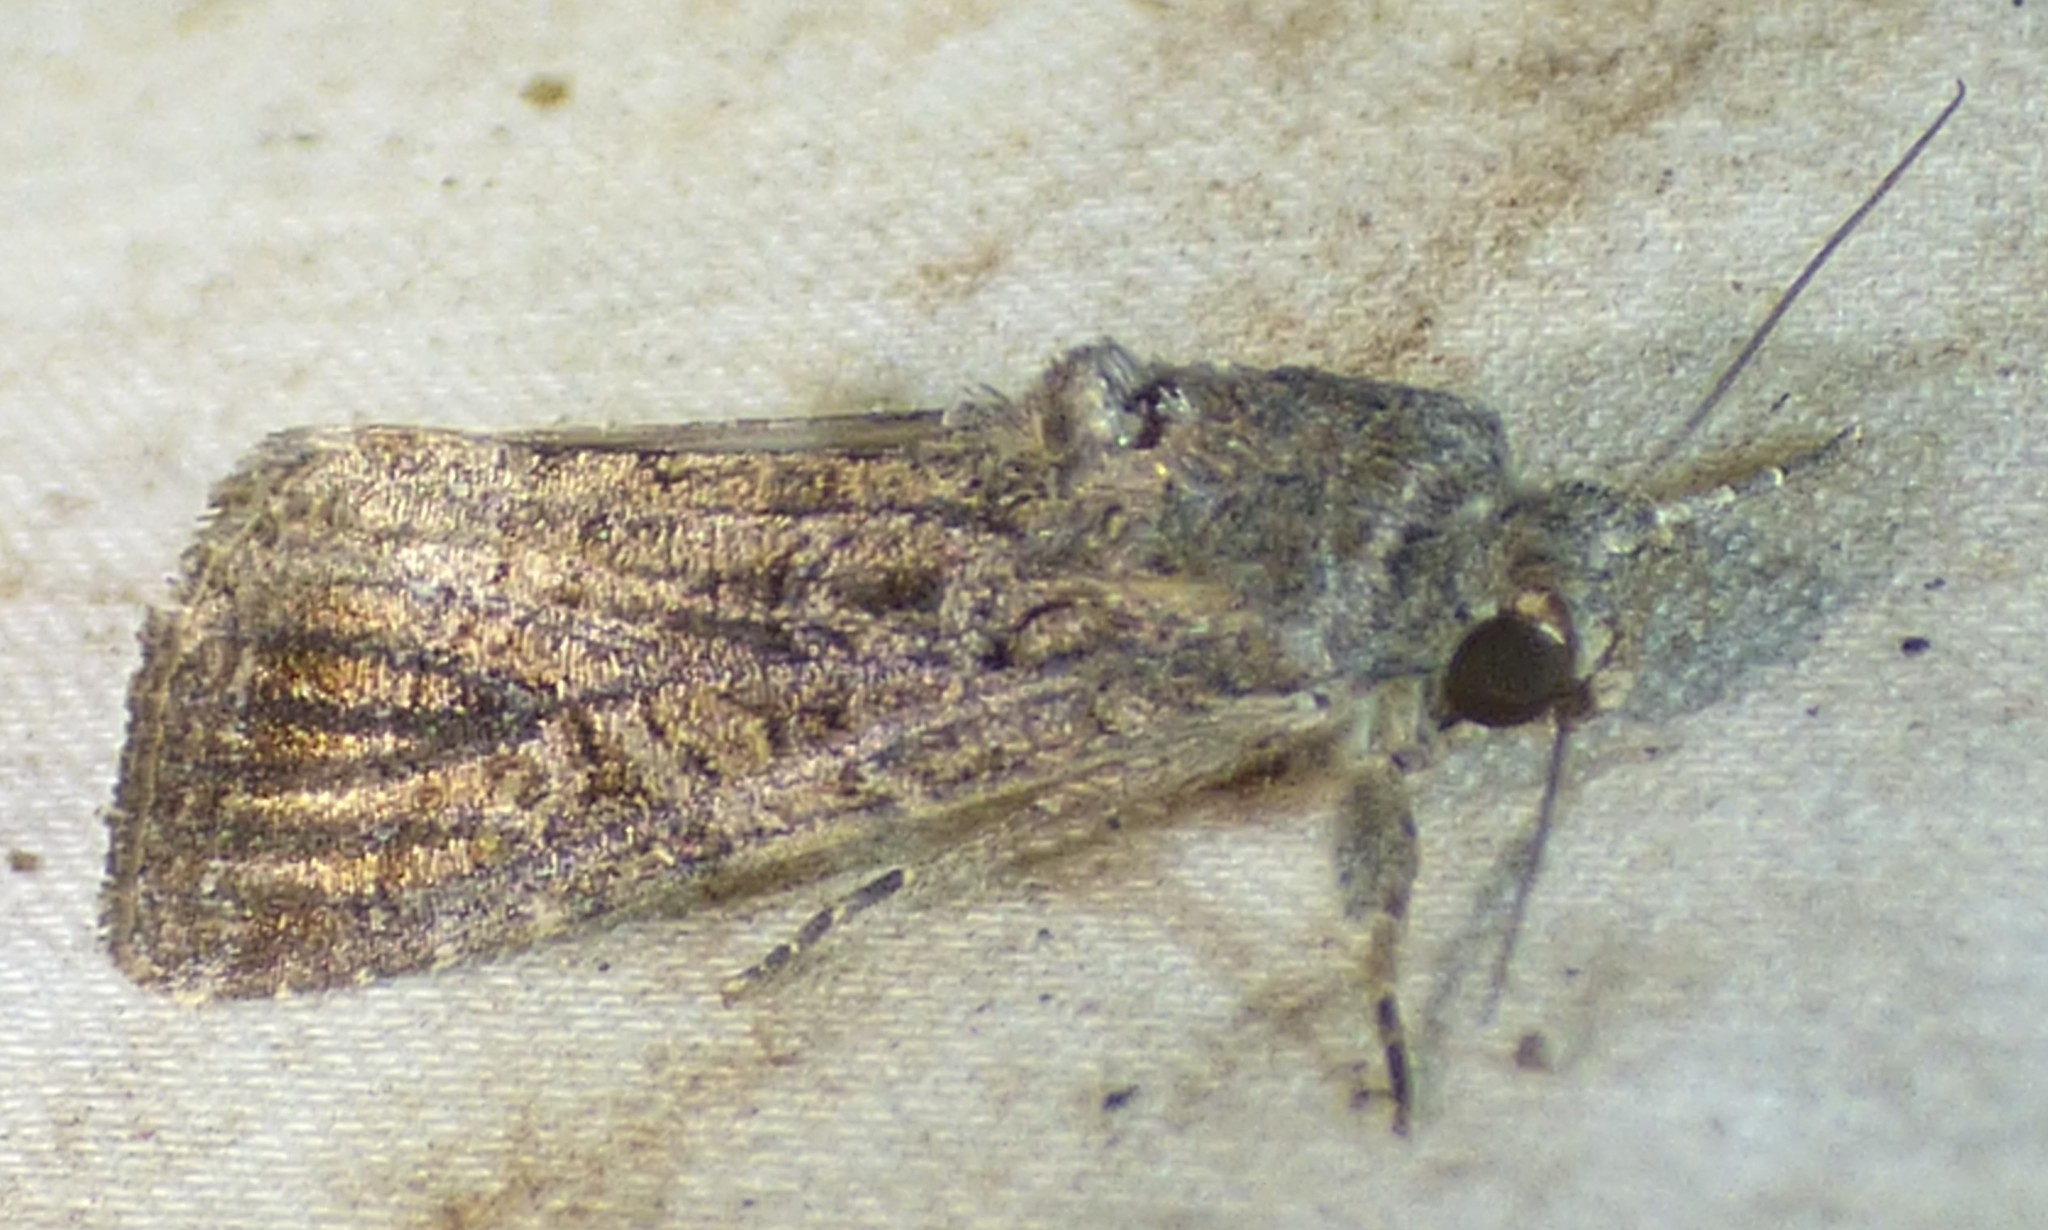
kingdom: Animalia
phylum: Arthropoda
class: Insecta
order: Lepidoptera
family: Noctuidae
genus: Spodoptera
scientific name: Spodoptera frugiperda
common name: Fall armyworm
